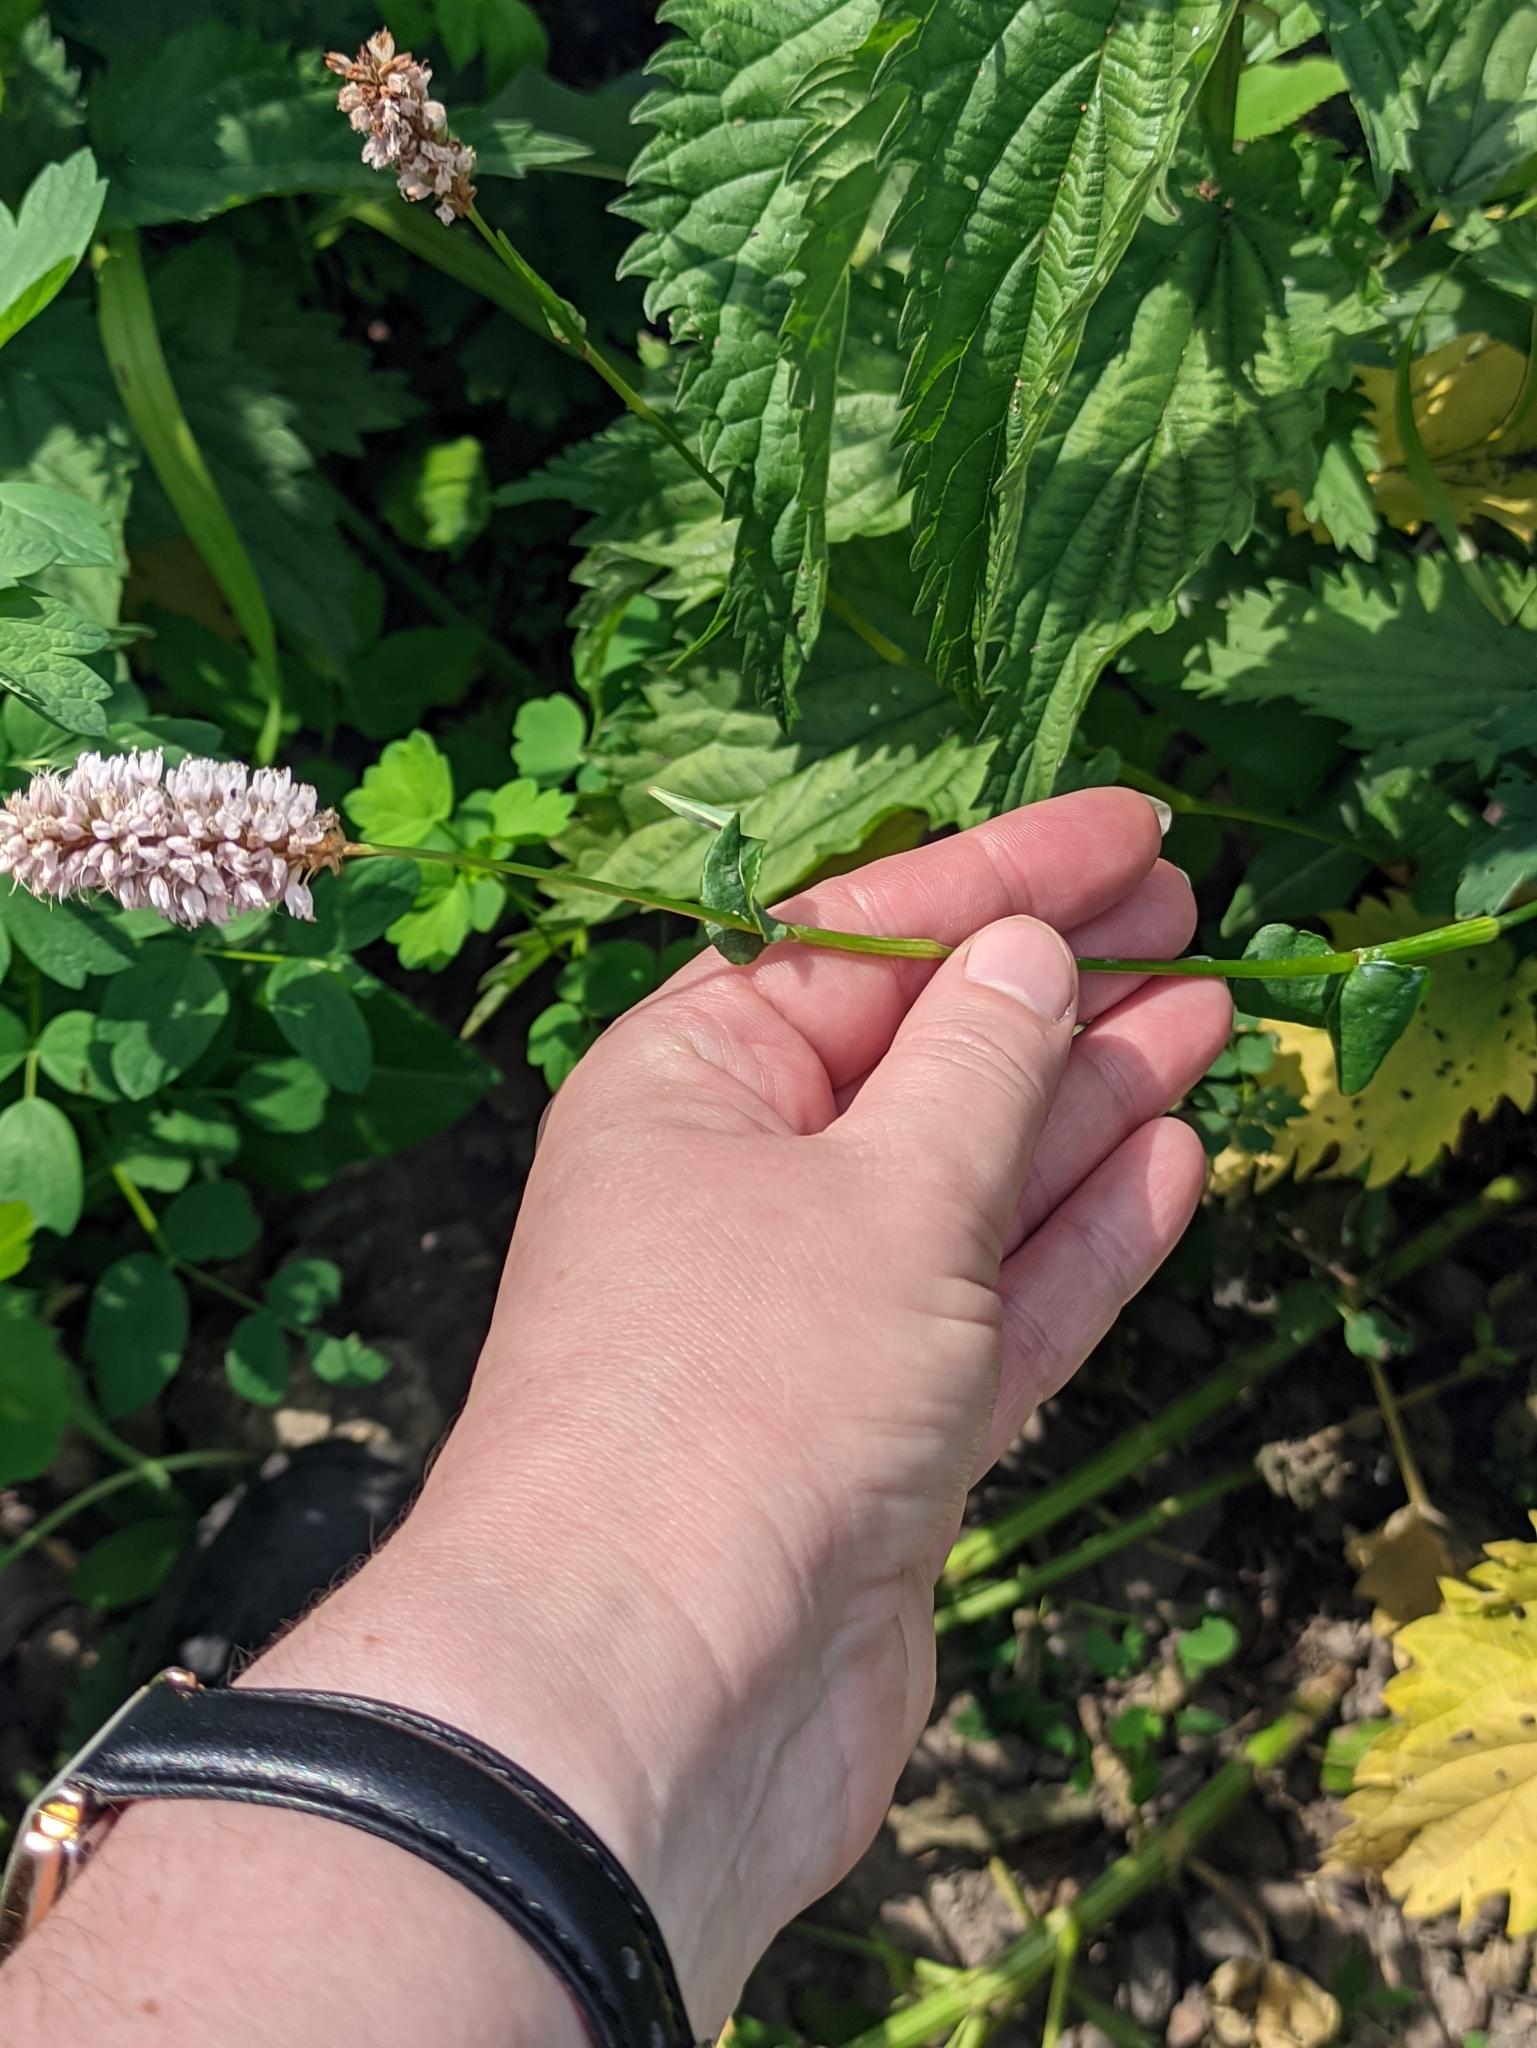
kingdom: Plantae
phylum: Tracheophyta
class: Magnoliopsida
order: Caryophyllales
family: Polygonaceae
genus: Bistorta
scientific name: Bistorta officinalis
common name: Common bistort
